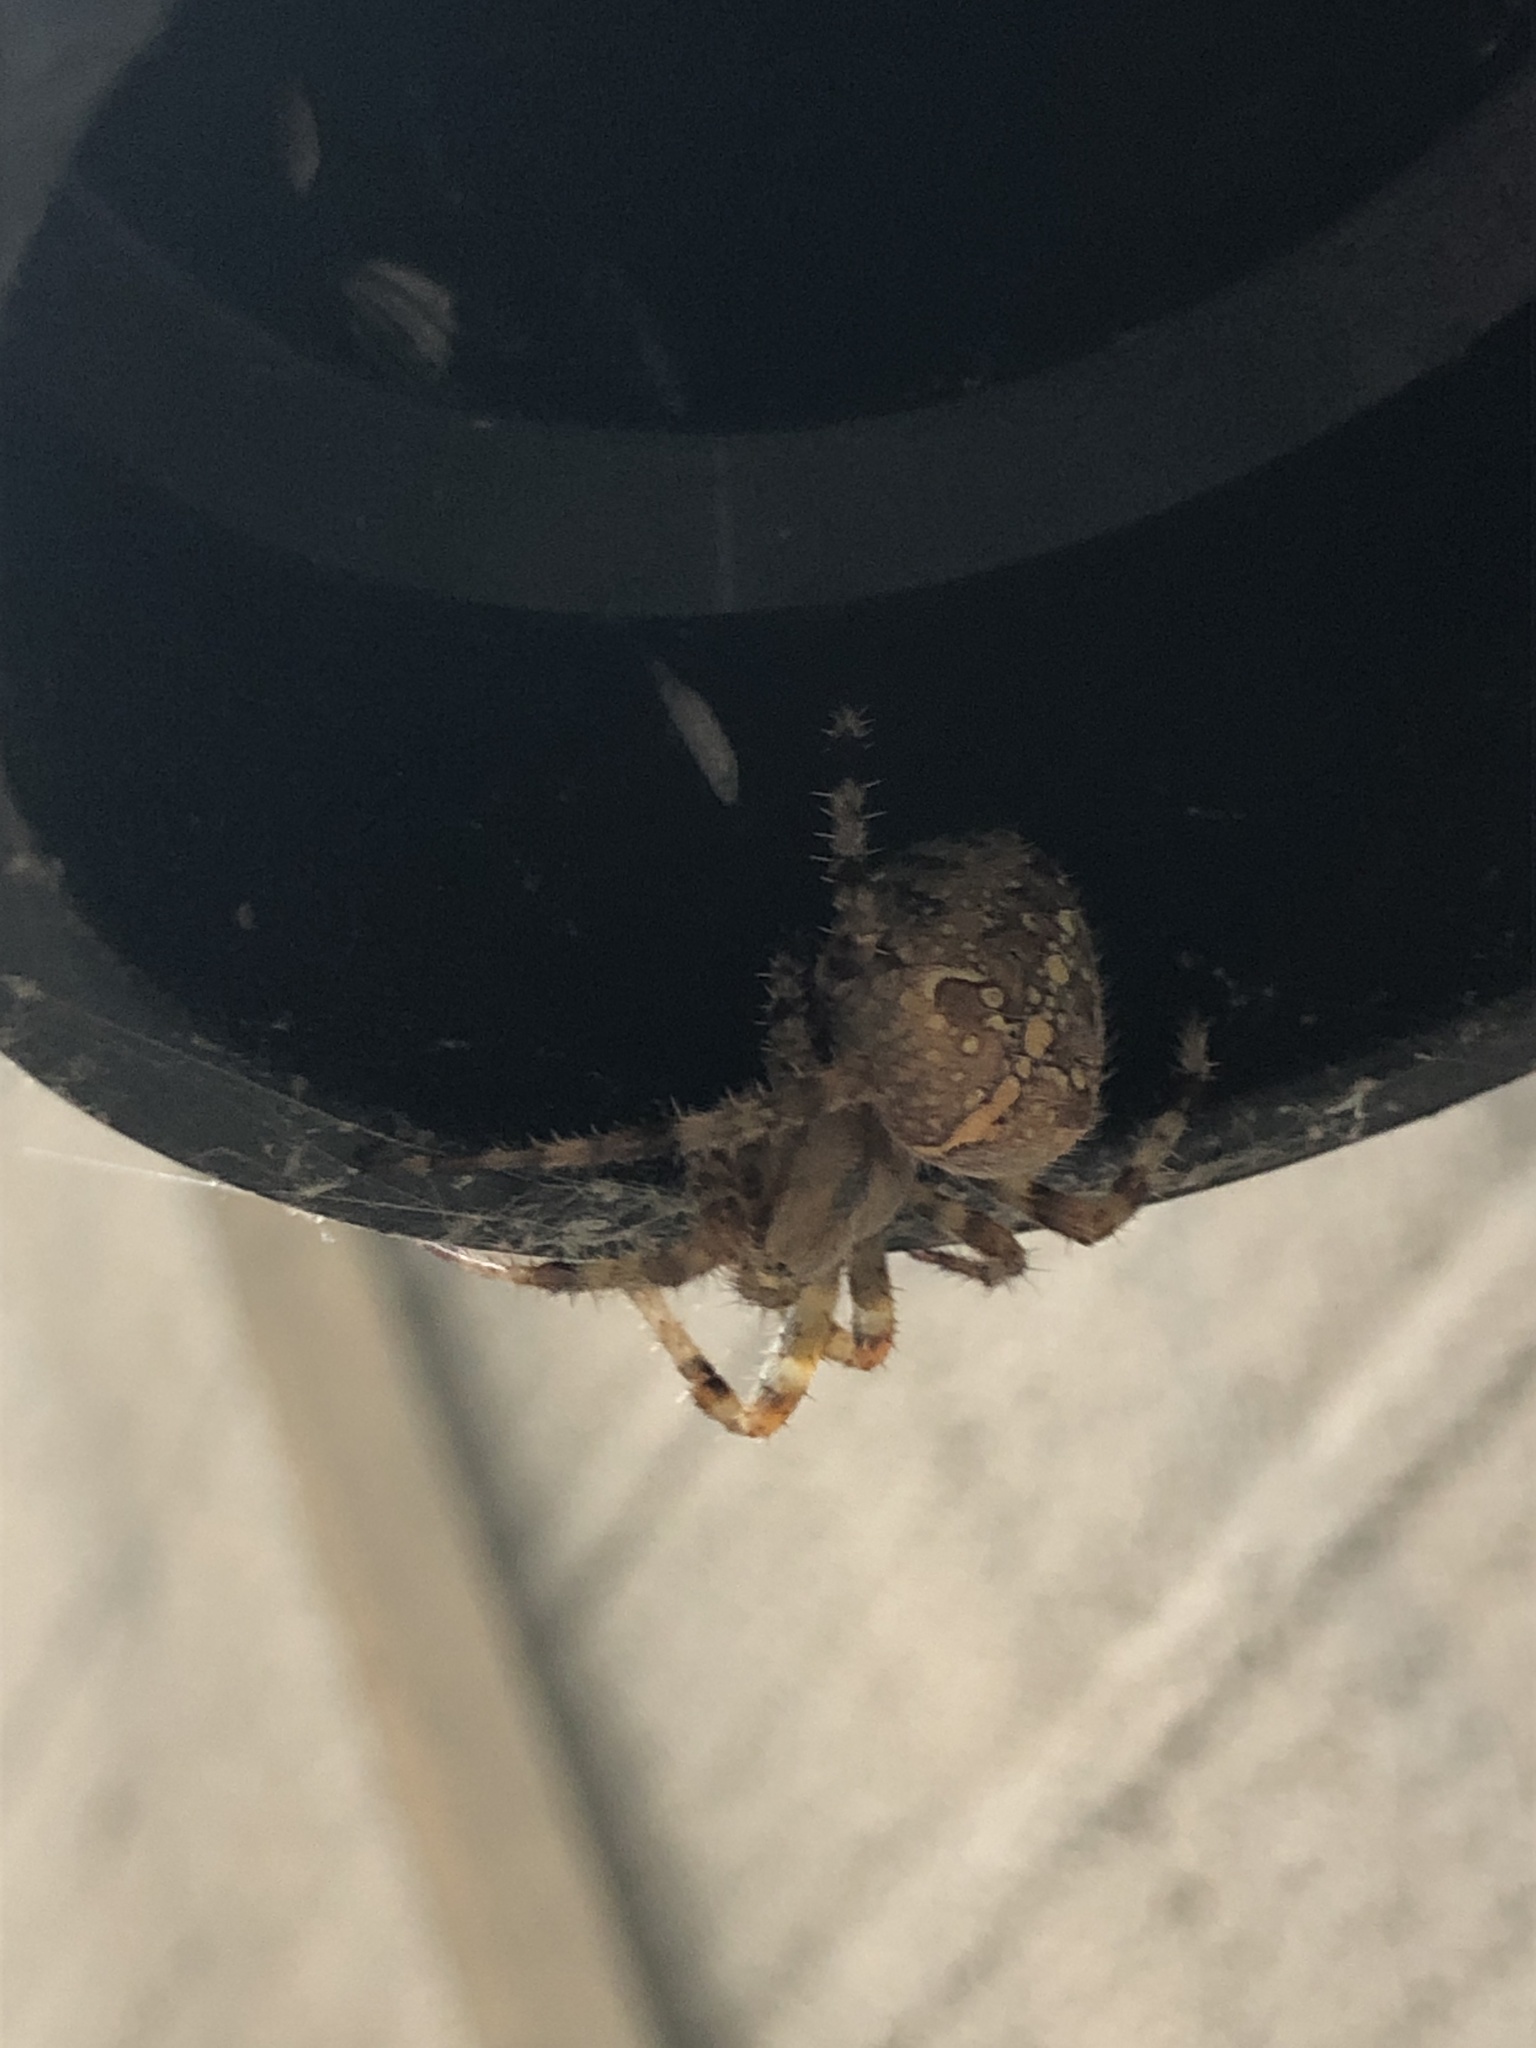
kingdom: Animalia
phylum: Arthropoda
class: Arachnida
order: Araneae
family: Araneidae
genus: Araneus
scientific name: Araneus diadematus
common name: Cross orbweaver
